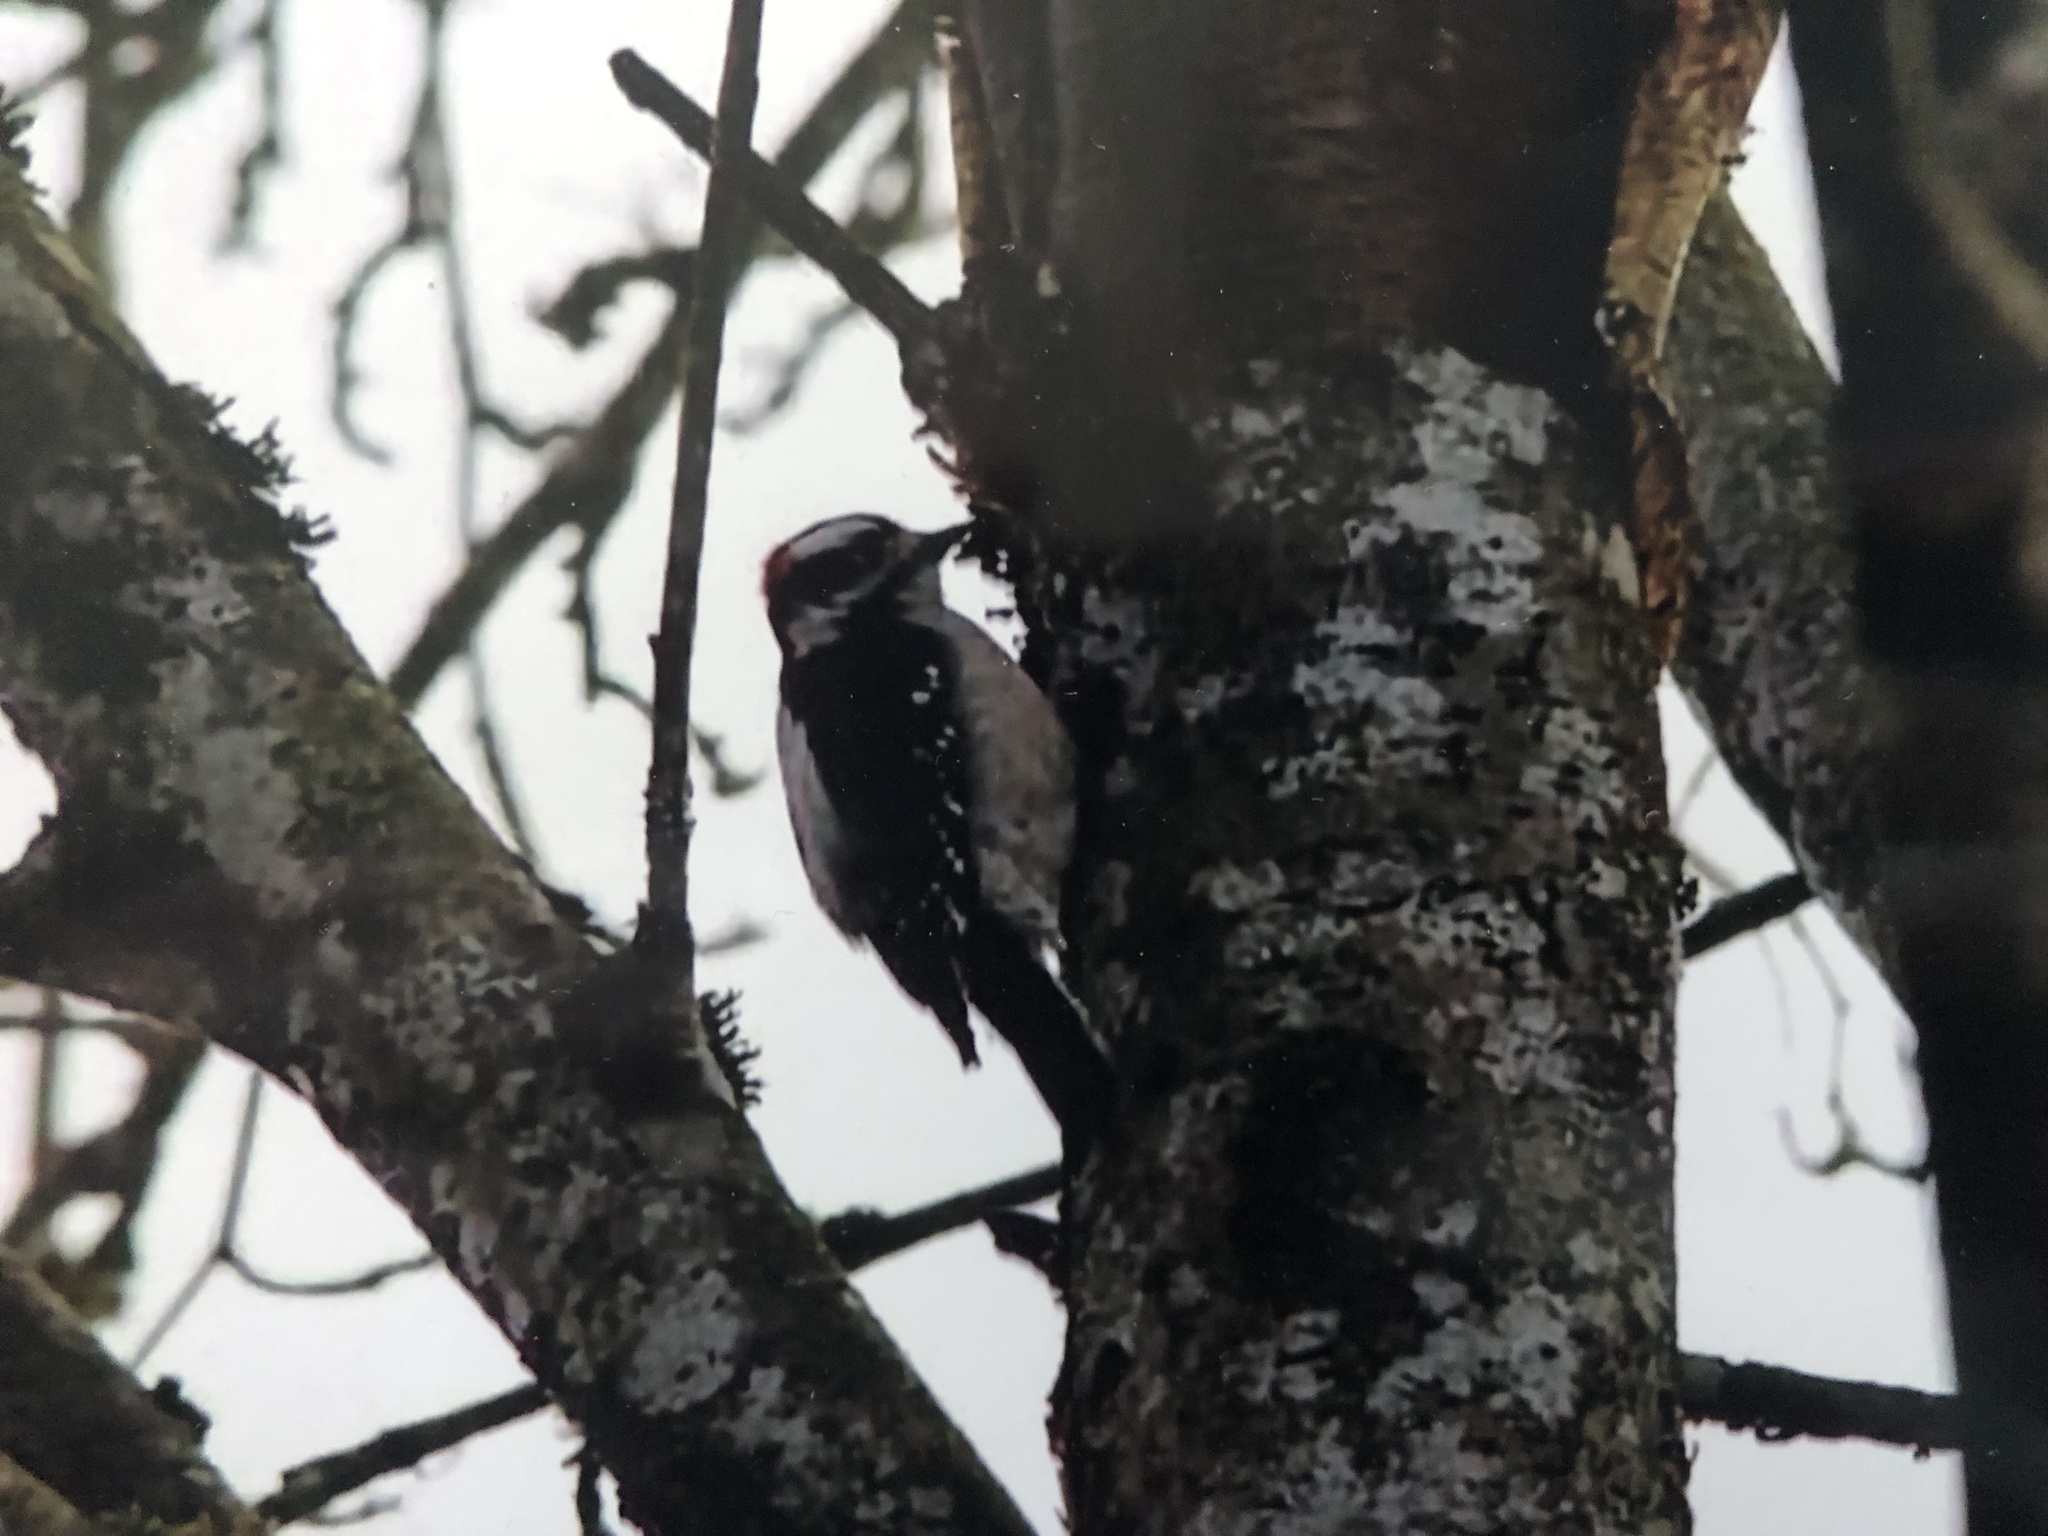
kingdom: Animalia
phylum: Chordata
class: Aves
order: Piciformes
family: Picidae
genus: Dryobates
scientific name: Dryobates pubescens
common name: Downy woodpecker
